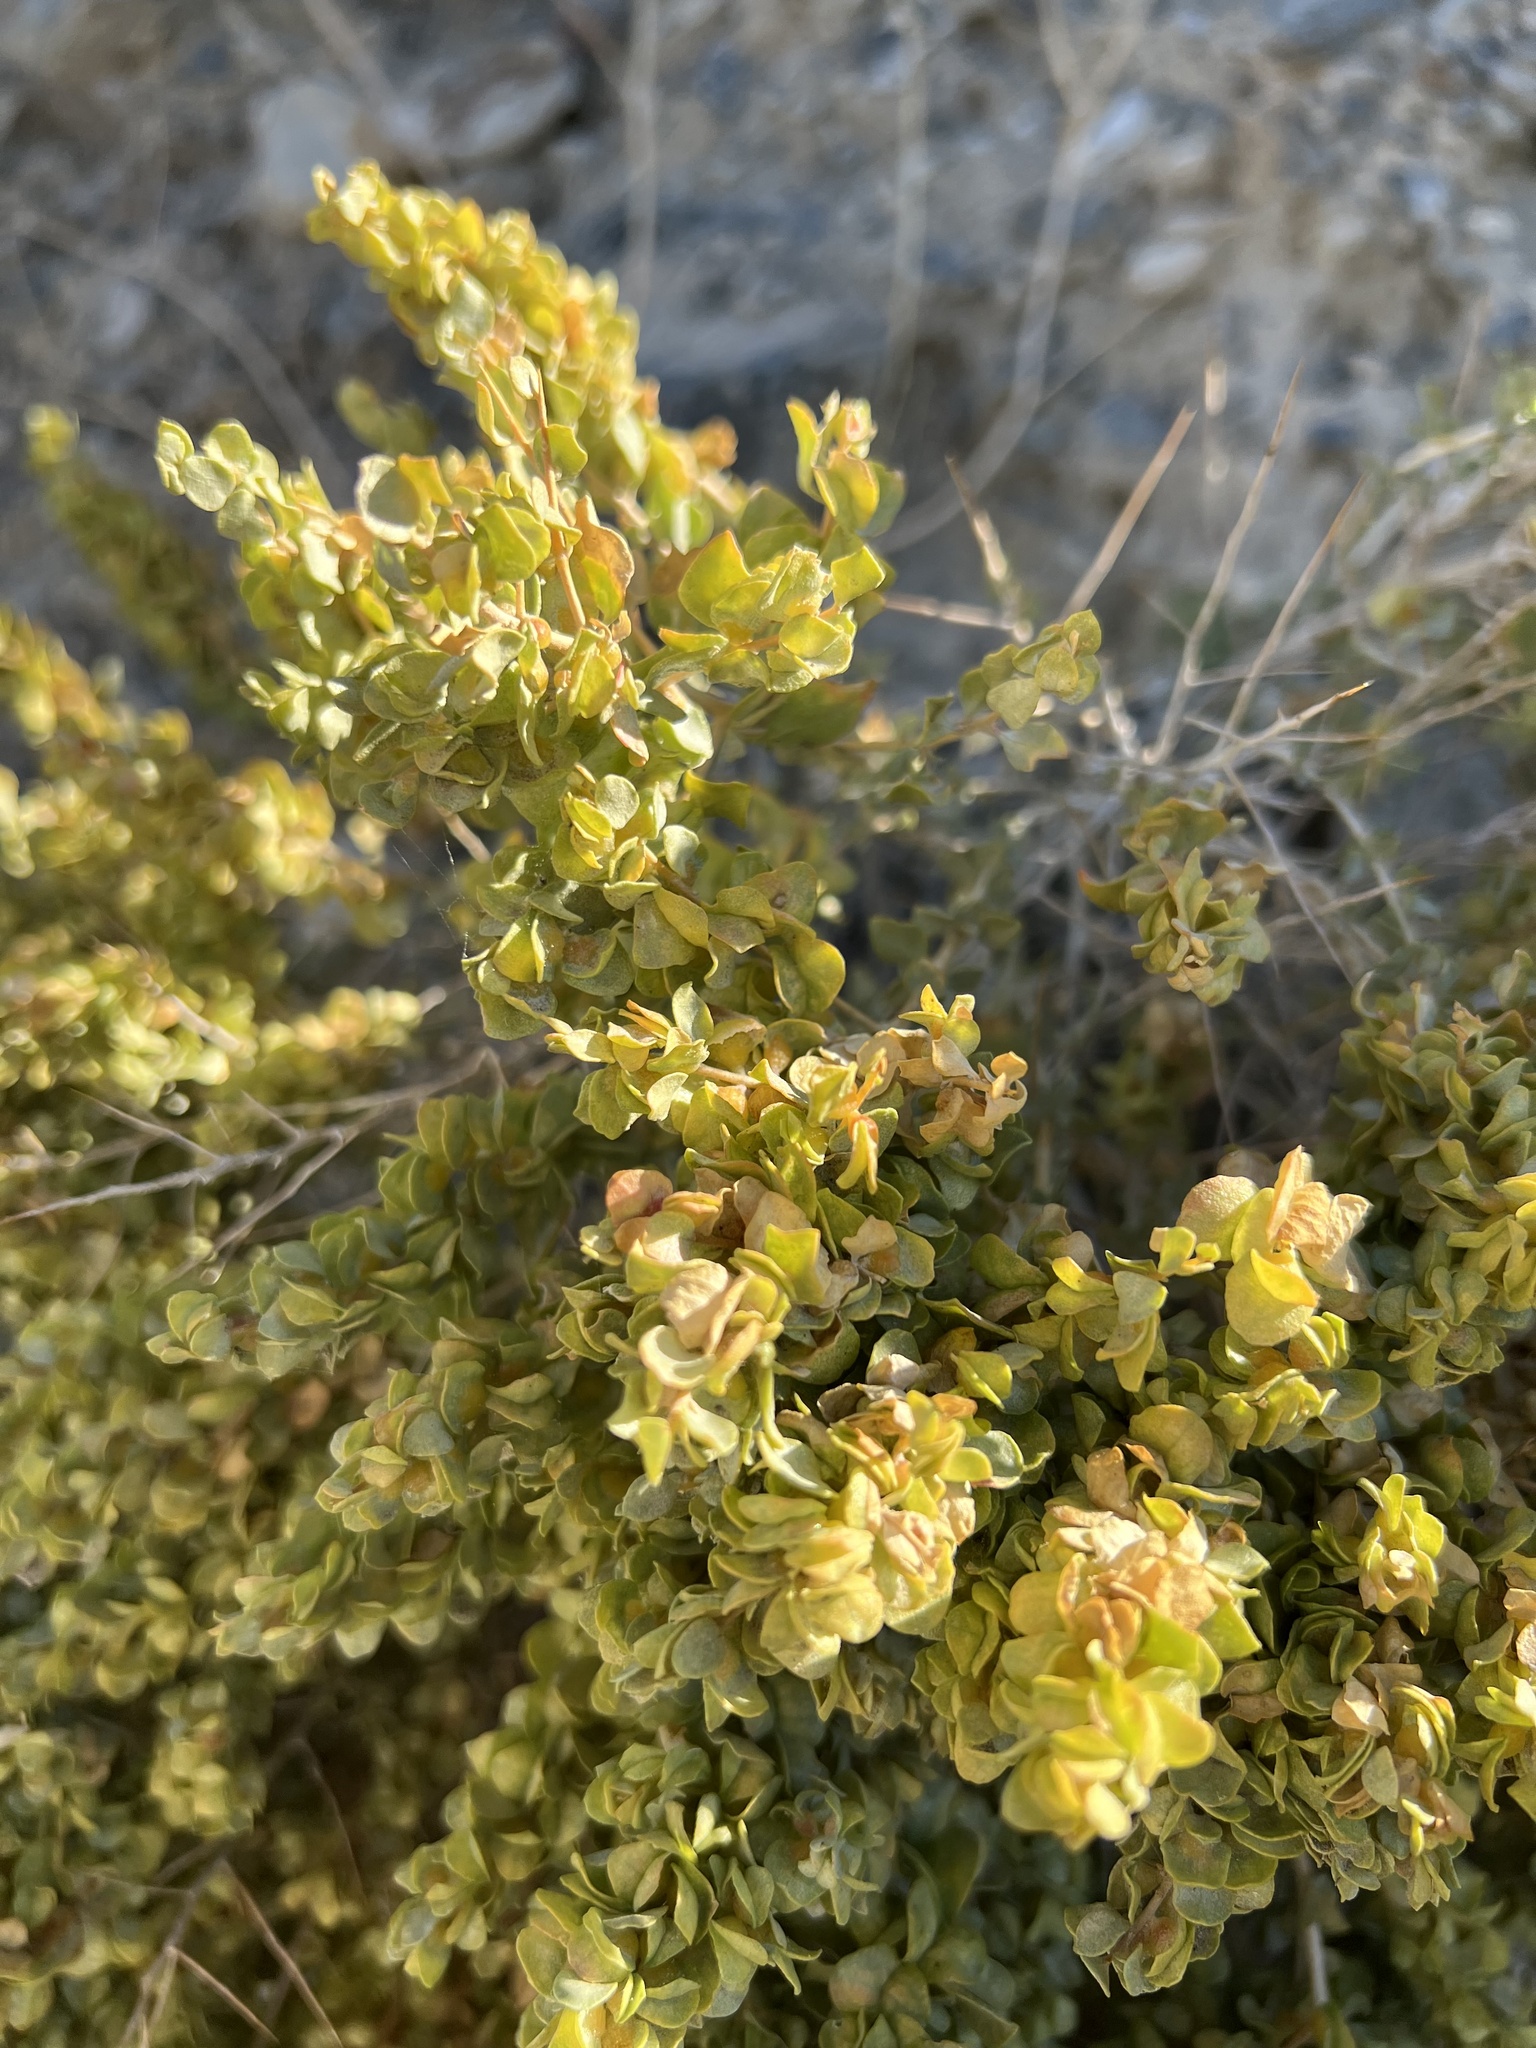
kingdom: Plantae
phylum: Tracheophyta
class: Magnoliopsida
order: Caryophyllales
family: Amaranthaceae
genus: Atriplex
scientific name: Atriplex confertifolia
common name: Shadscale
